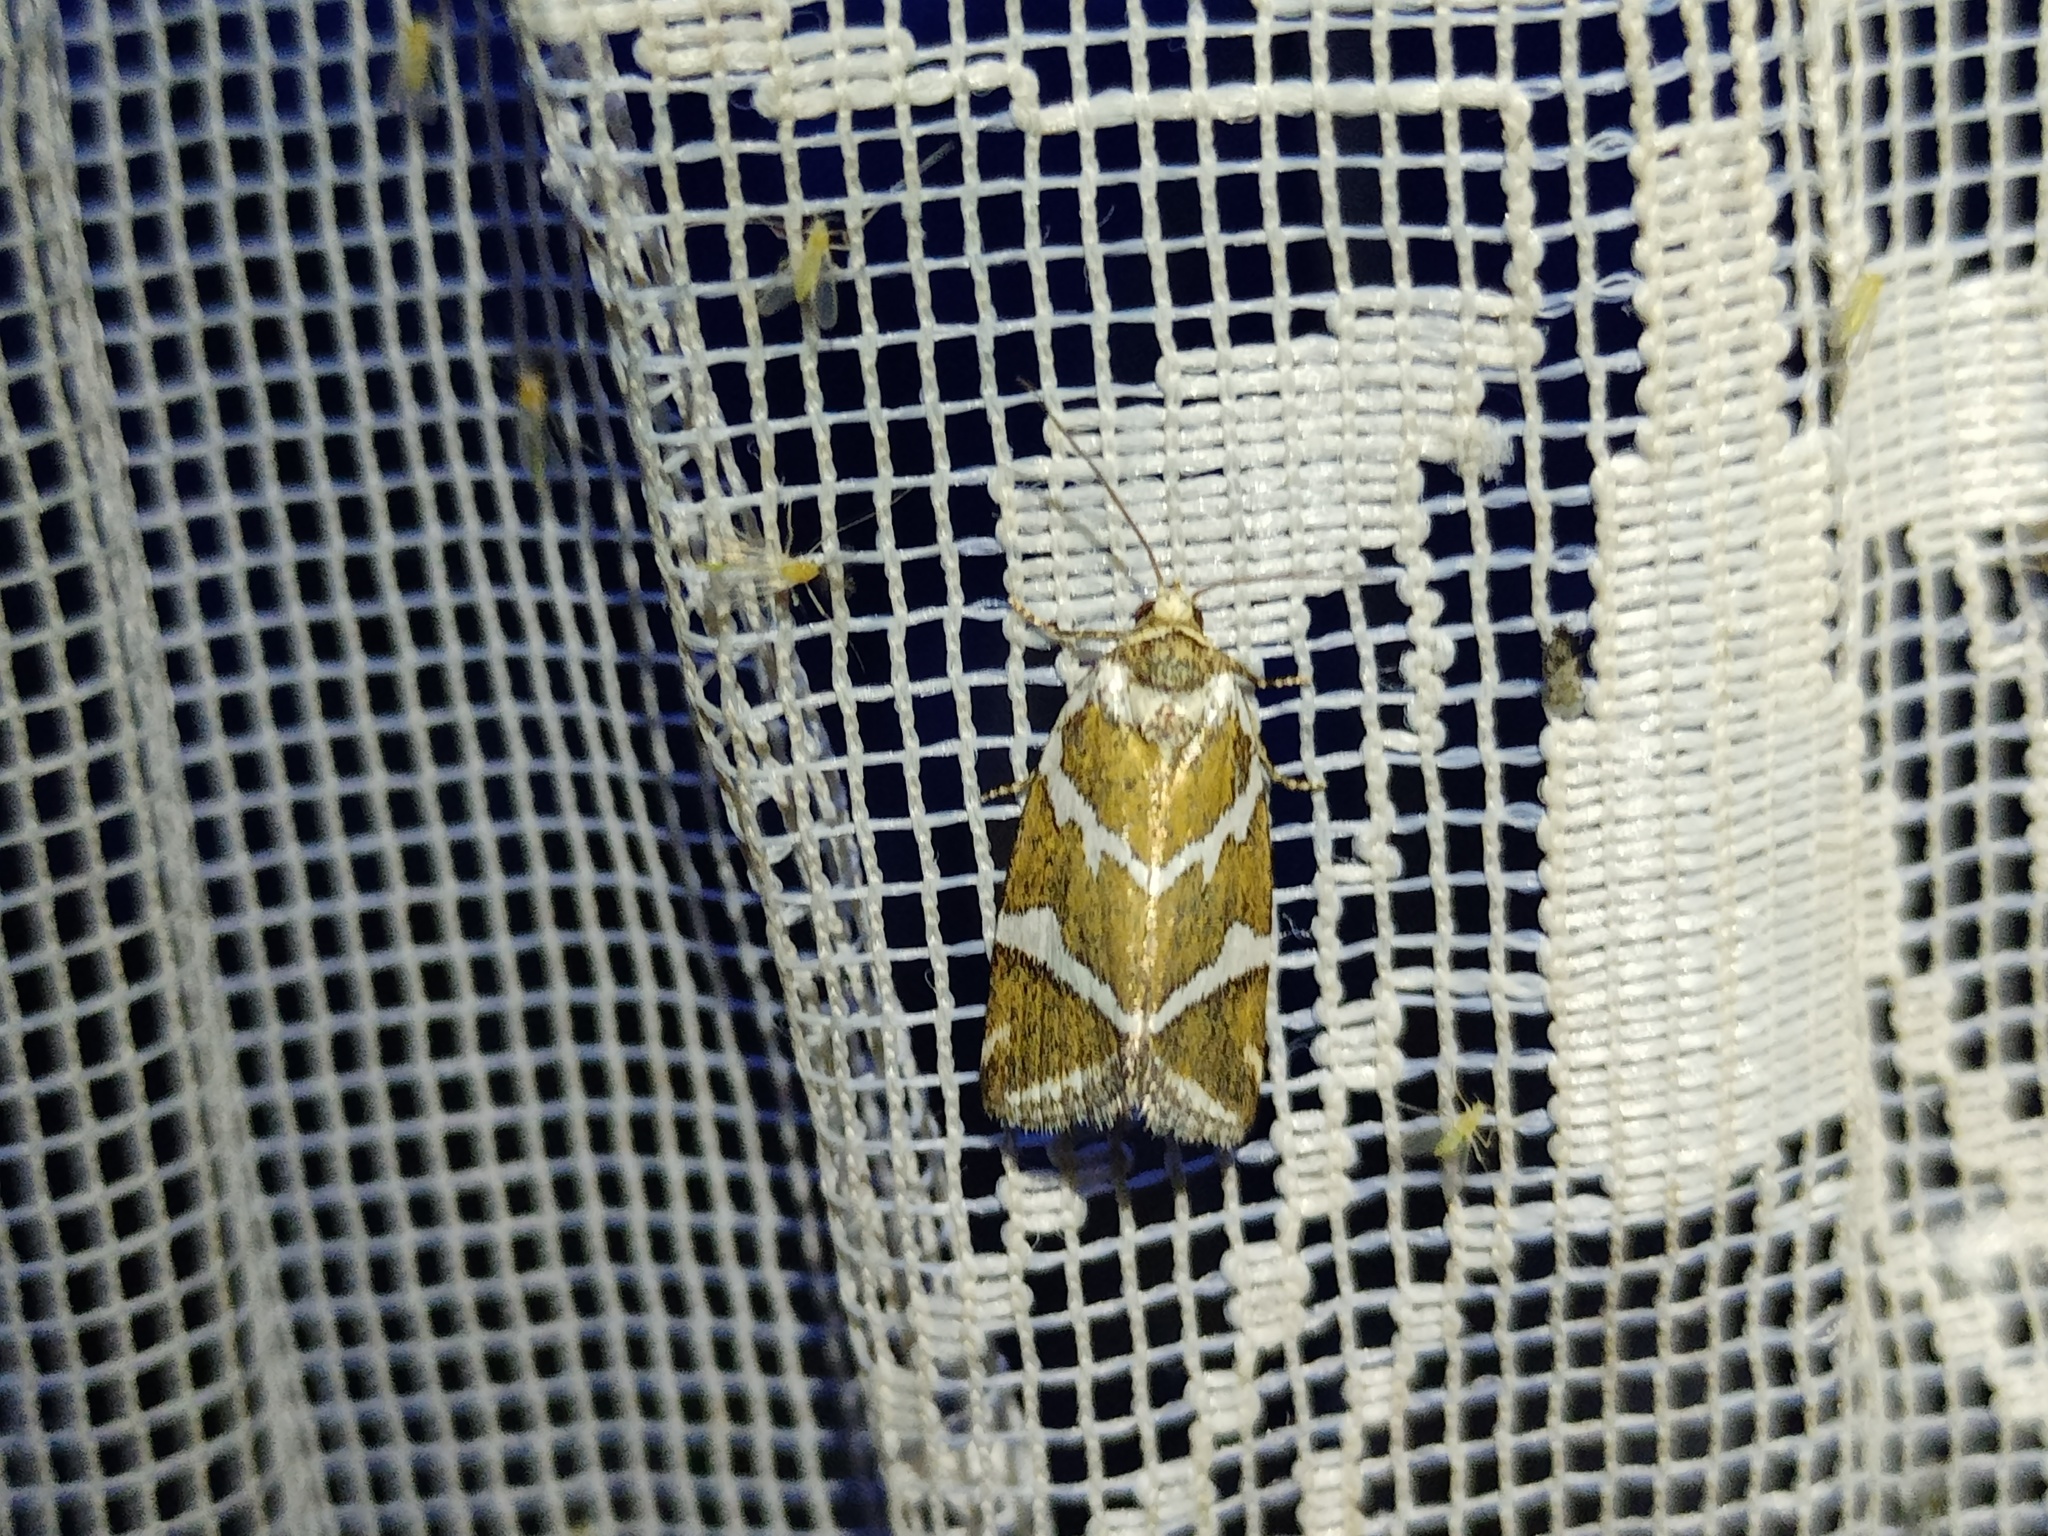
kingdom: Animalia
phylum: Arthropoda
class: Insecta
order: Lepidoptera
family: Noctuidae
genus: Deltote
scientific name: Deltote bankiana
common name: Silver barred
